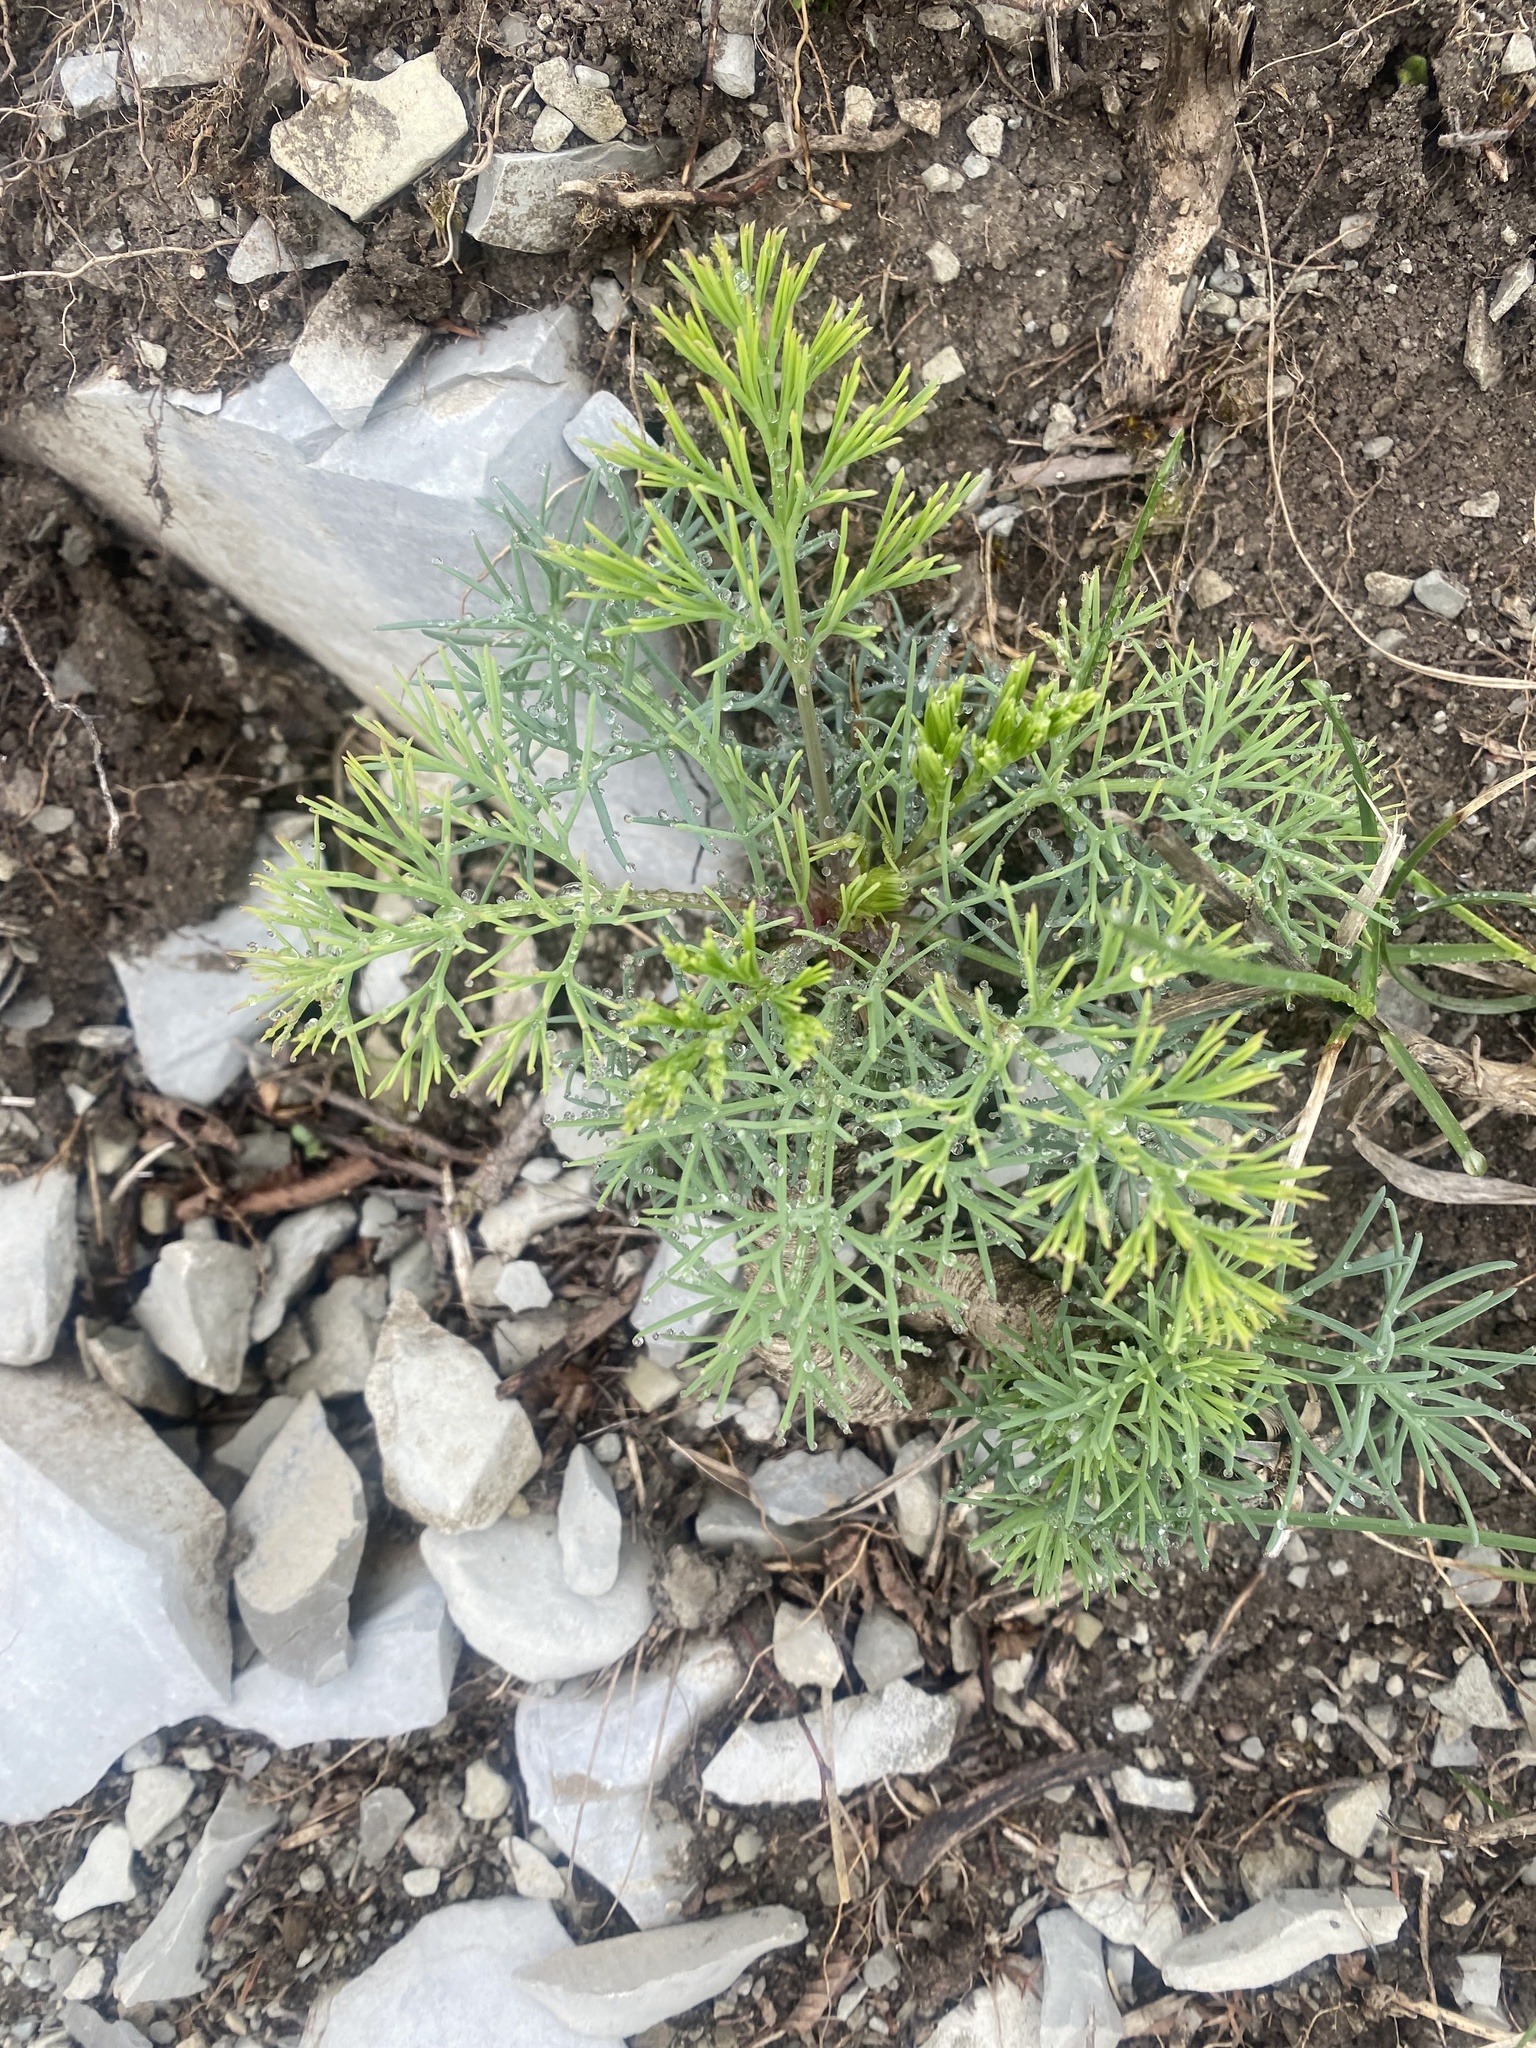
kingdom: Plantae
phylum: Tracheophyta
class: Magnoliopsida
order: Apiales
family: Apiaceae
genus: Seseli
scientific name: Seseli ponticum
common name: Pontic seseli
